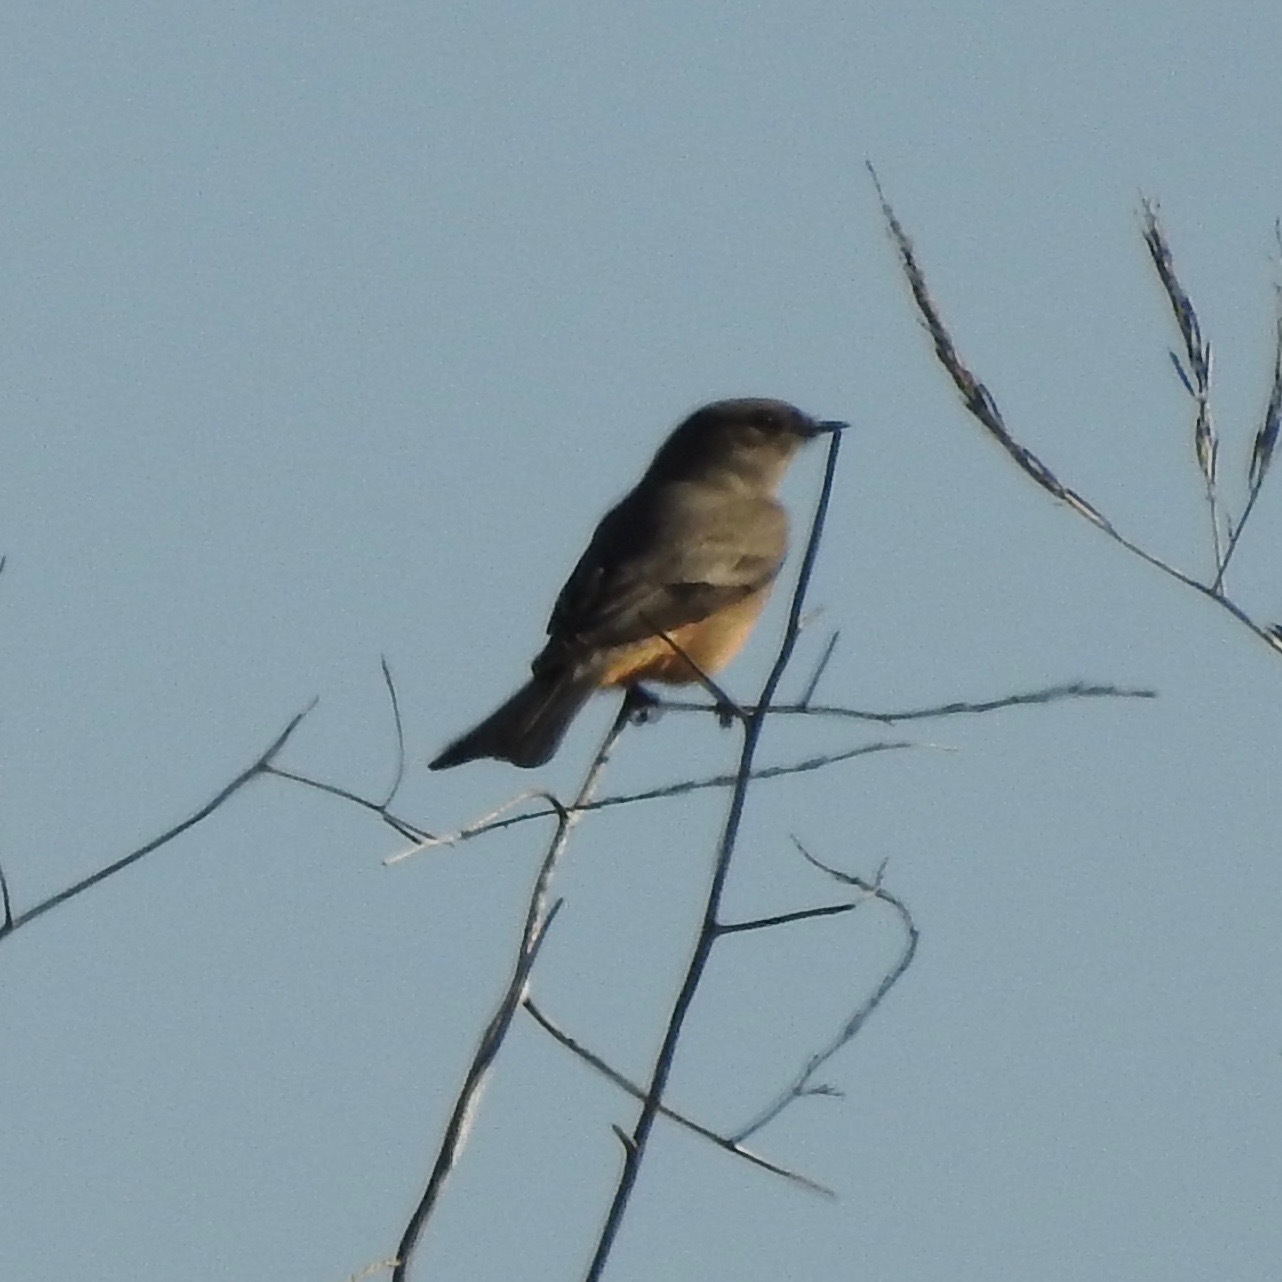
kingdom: Animalia
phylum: Chordata
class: Aves
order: Passeriformes
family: Tyrannidae
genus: Sayornis
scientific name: Sayornis saya
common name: Say's phoebe
